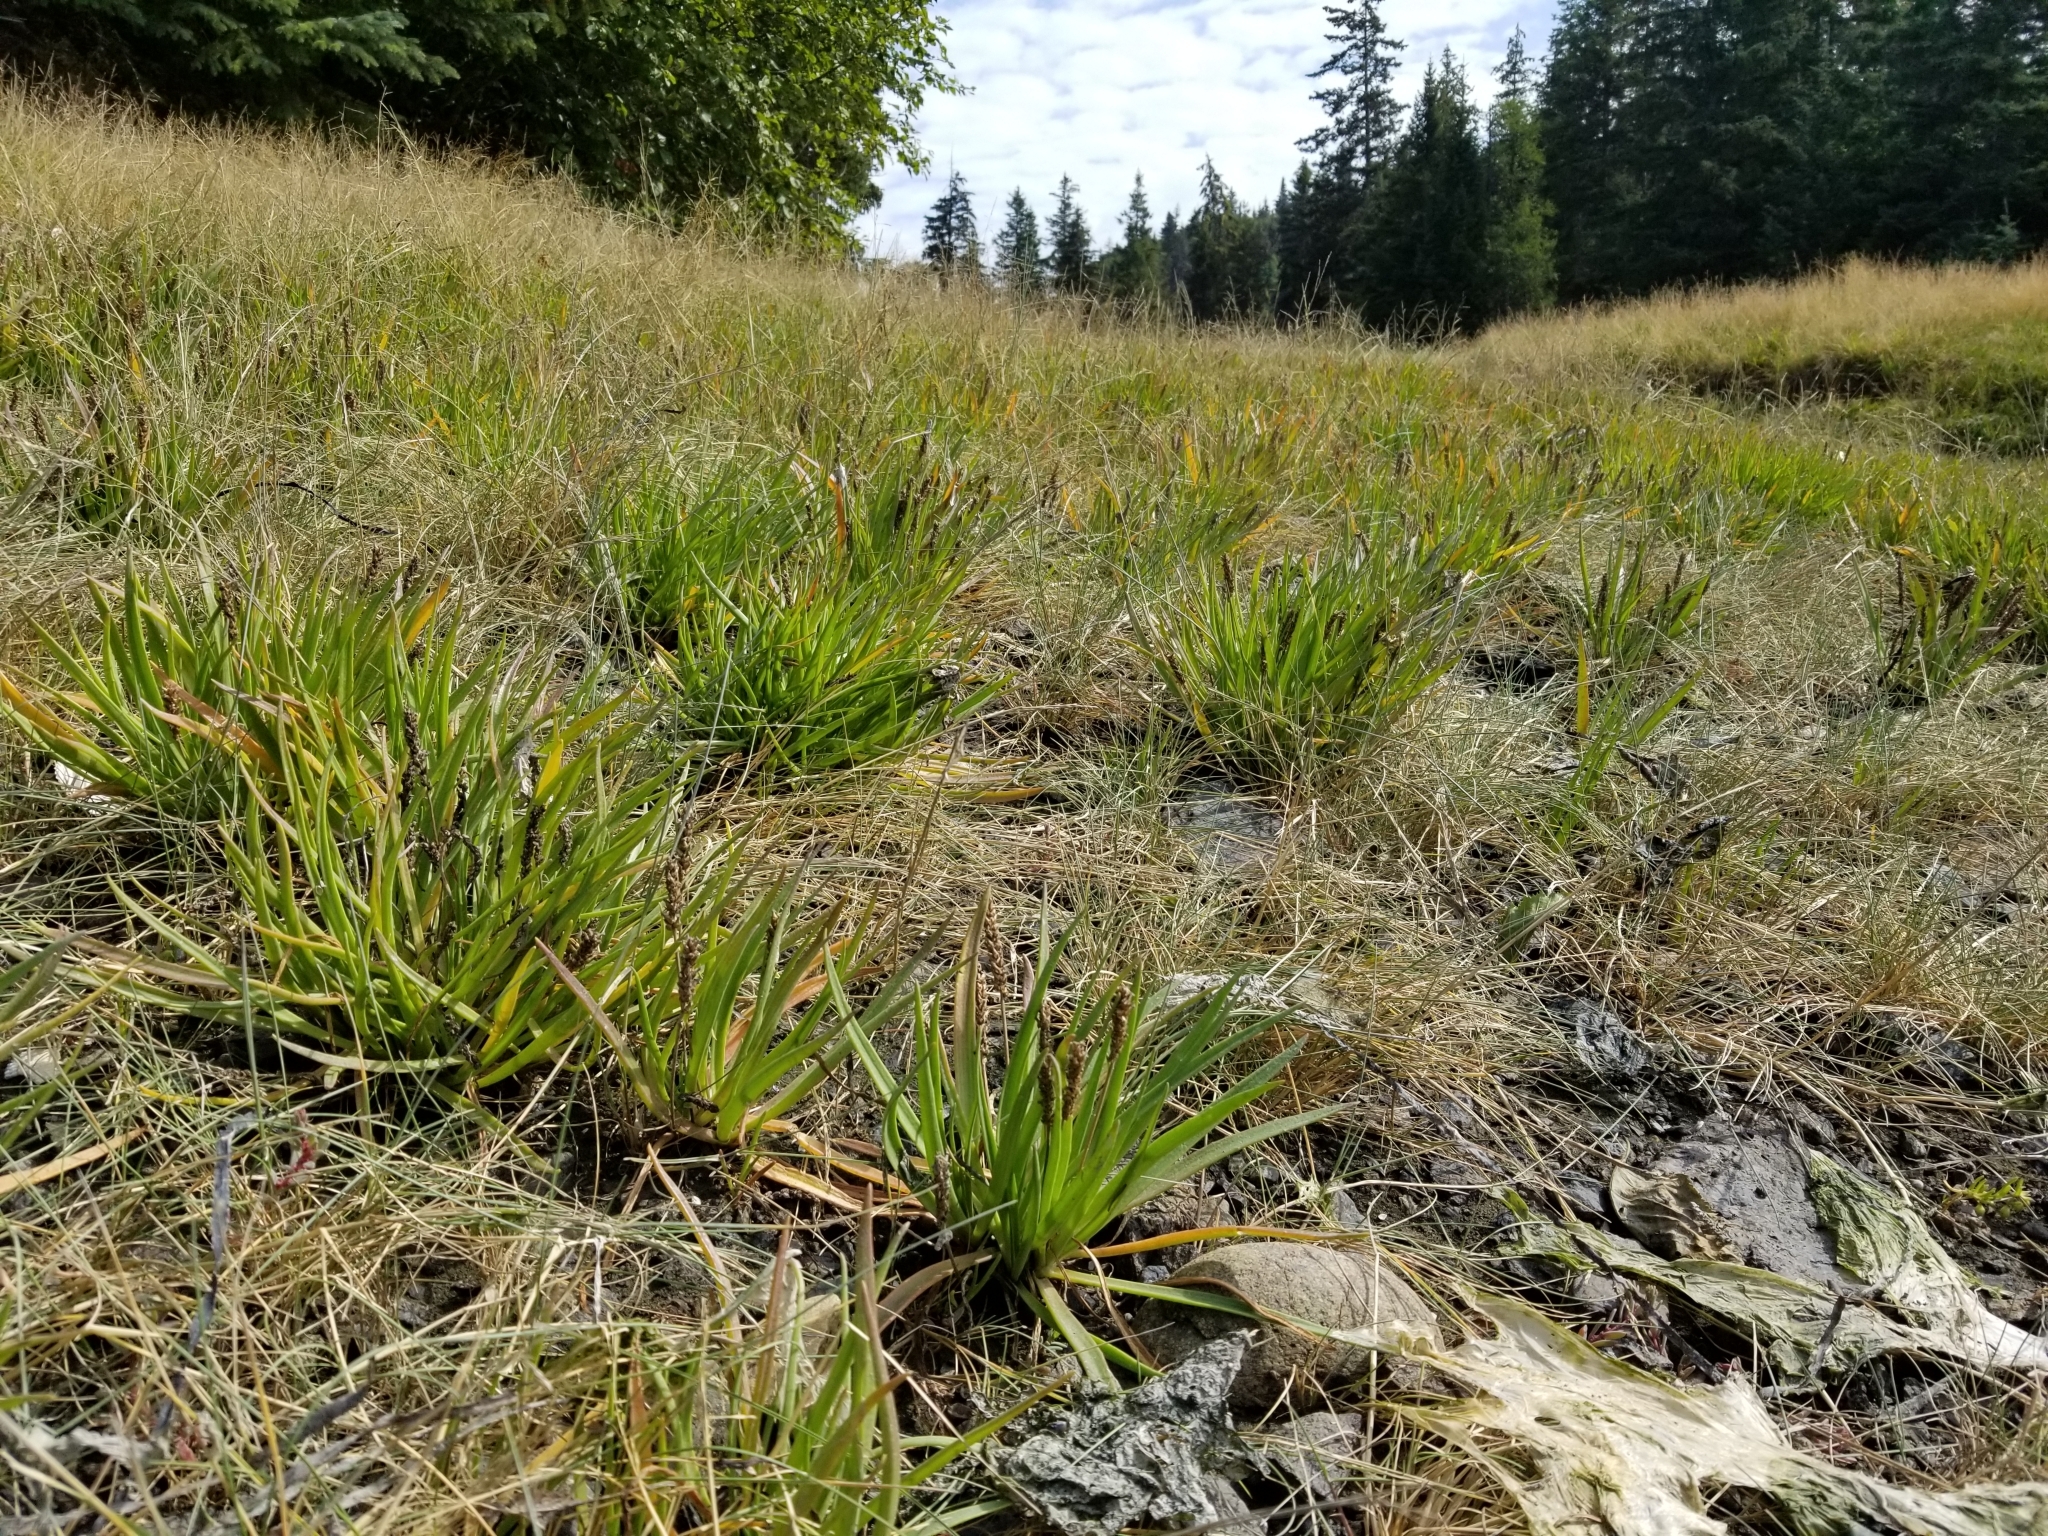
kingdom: Plantae
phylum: Tracheophyta
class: Magnoliopsida
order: Lamiales
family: Plantaginaceae
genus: Plantago
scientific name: Plantago maritima
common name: Sea plantain
